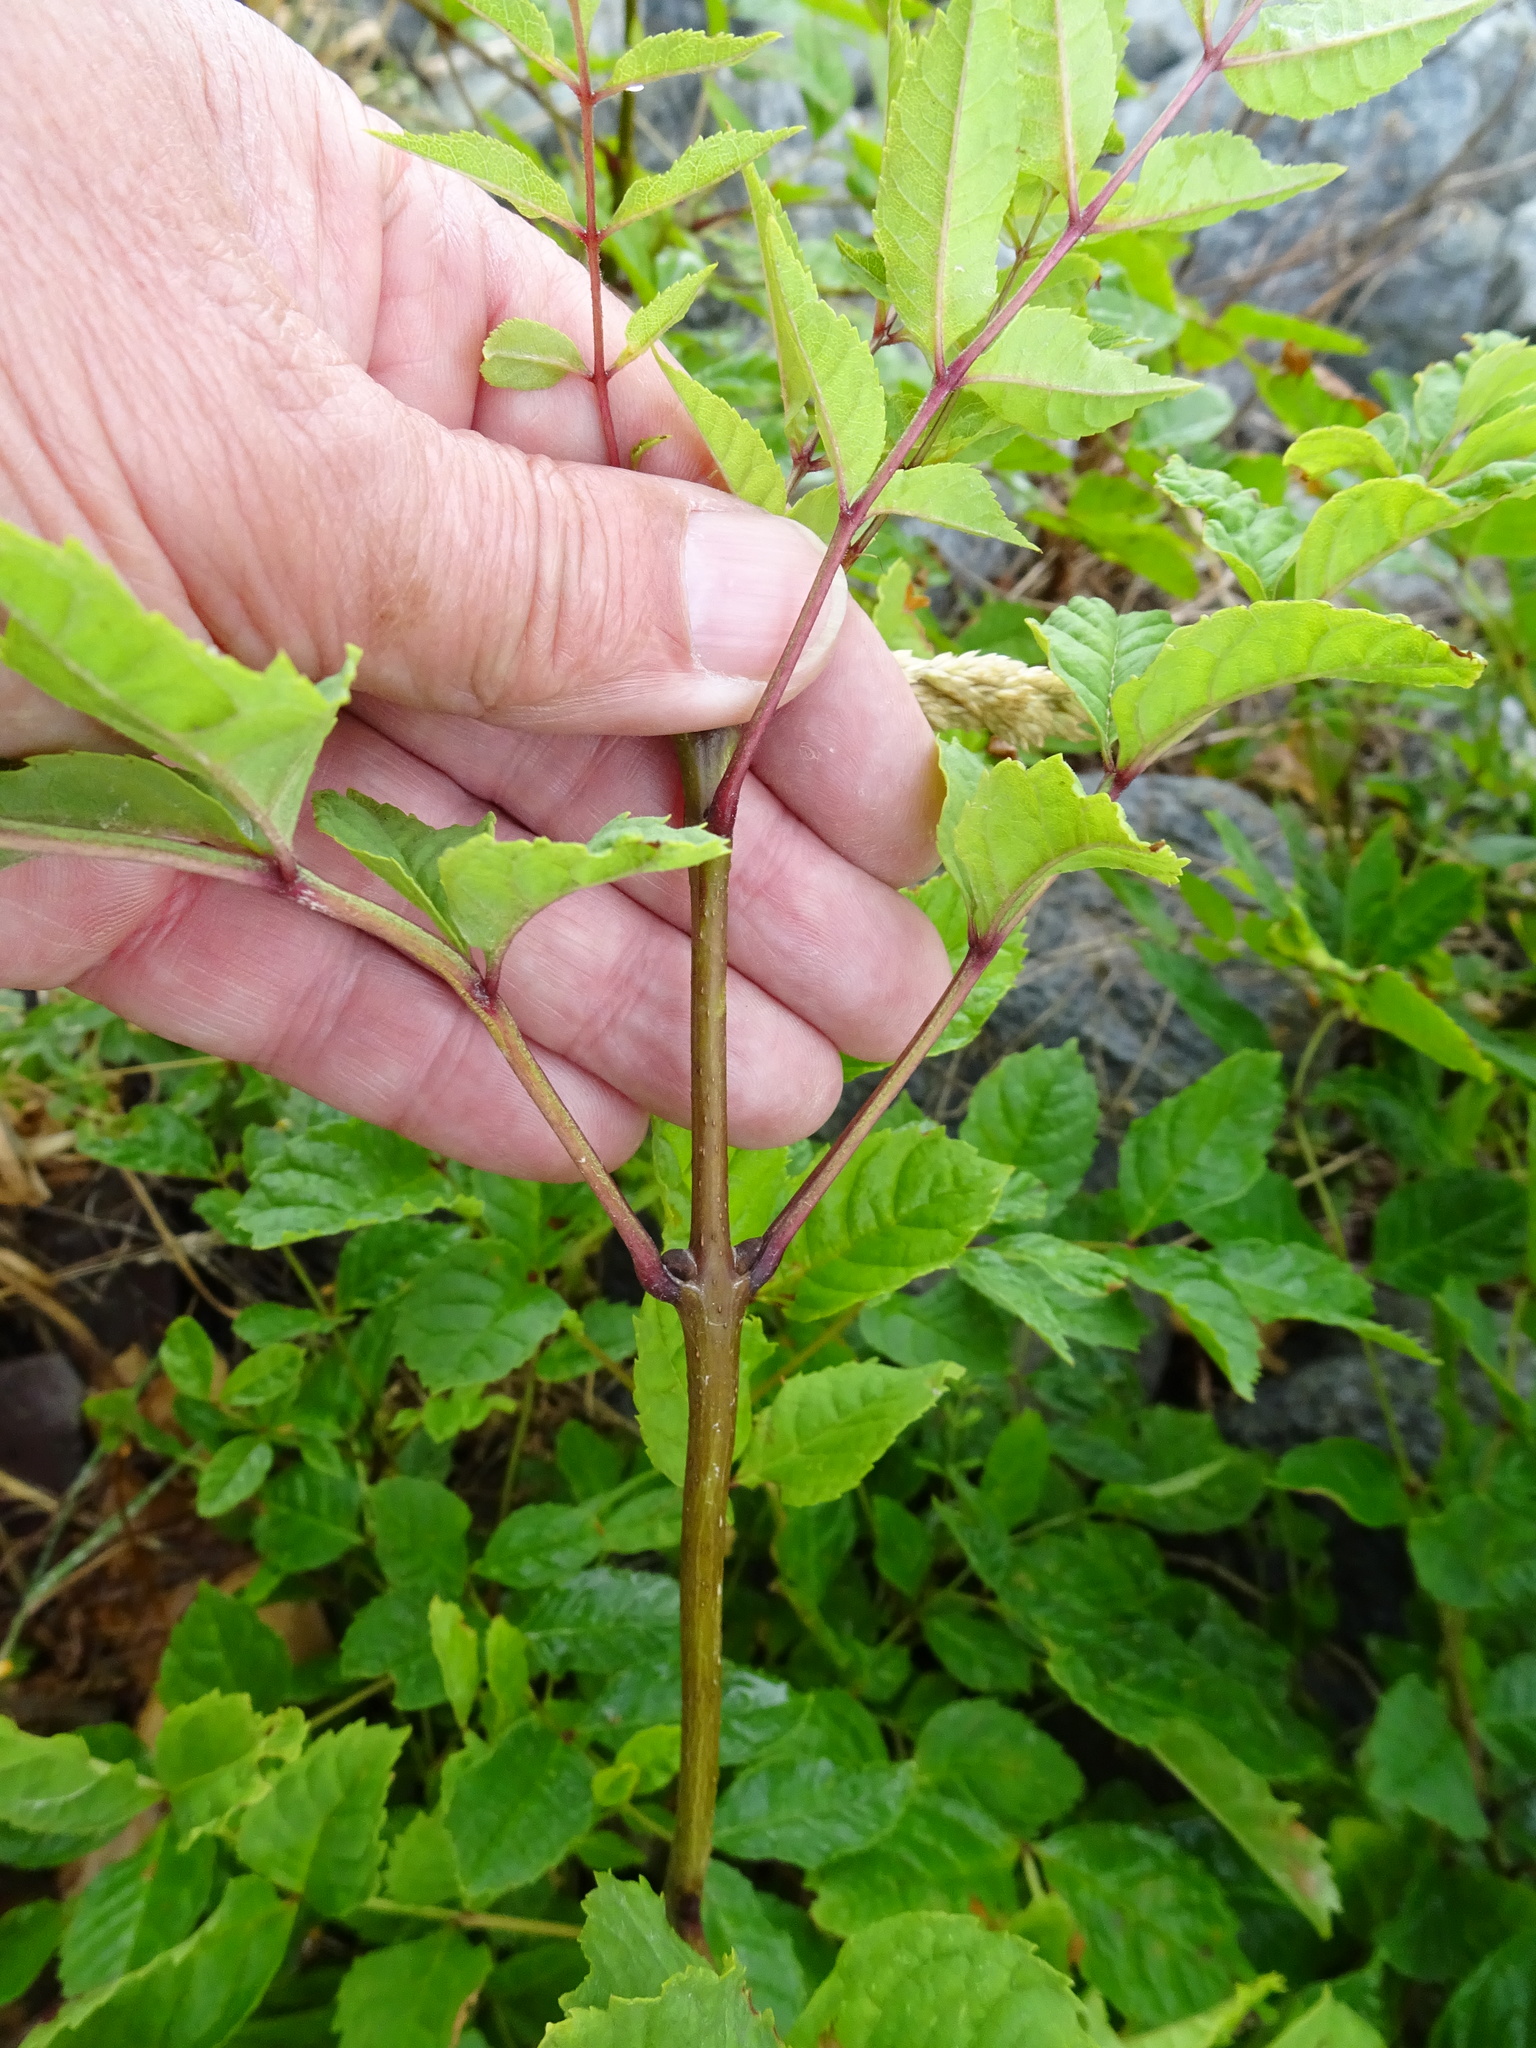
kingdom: Plantae
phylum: Tracheophyta
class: Magnoliopsida
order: Lamiales
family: Oleaceae
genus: Fraxinus
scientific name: Fraxinus excelsior
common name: European ash
